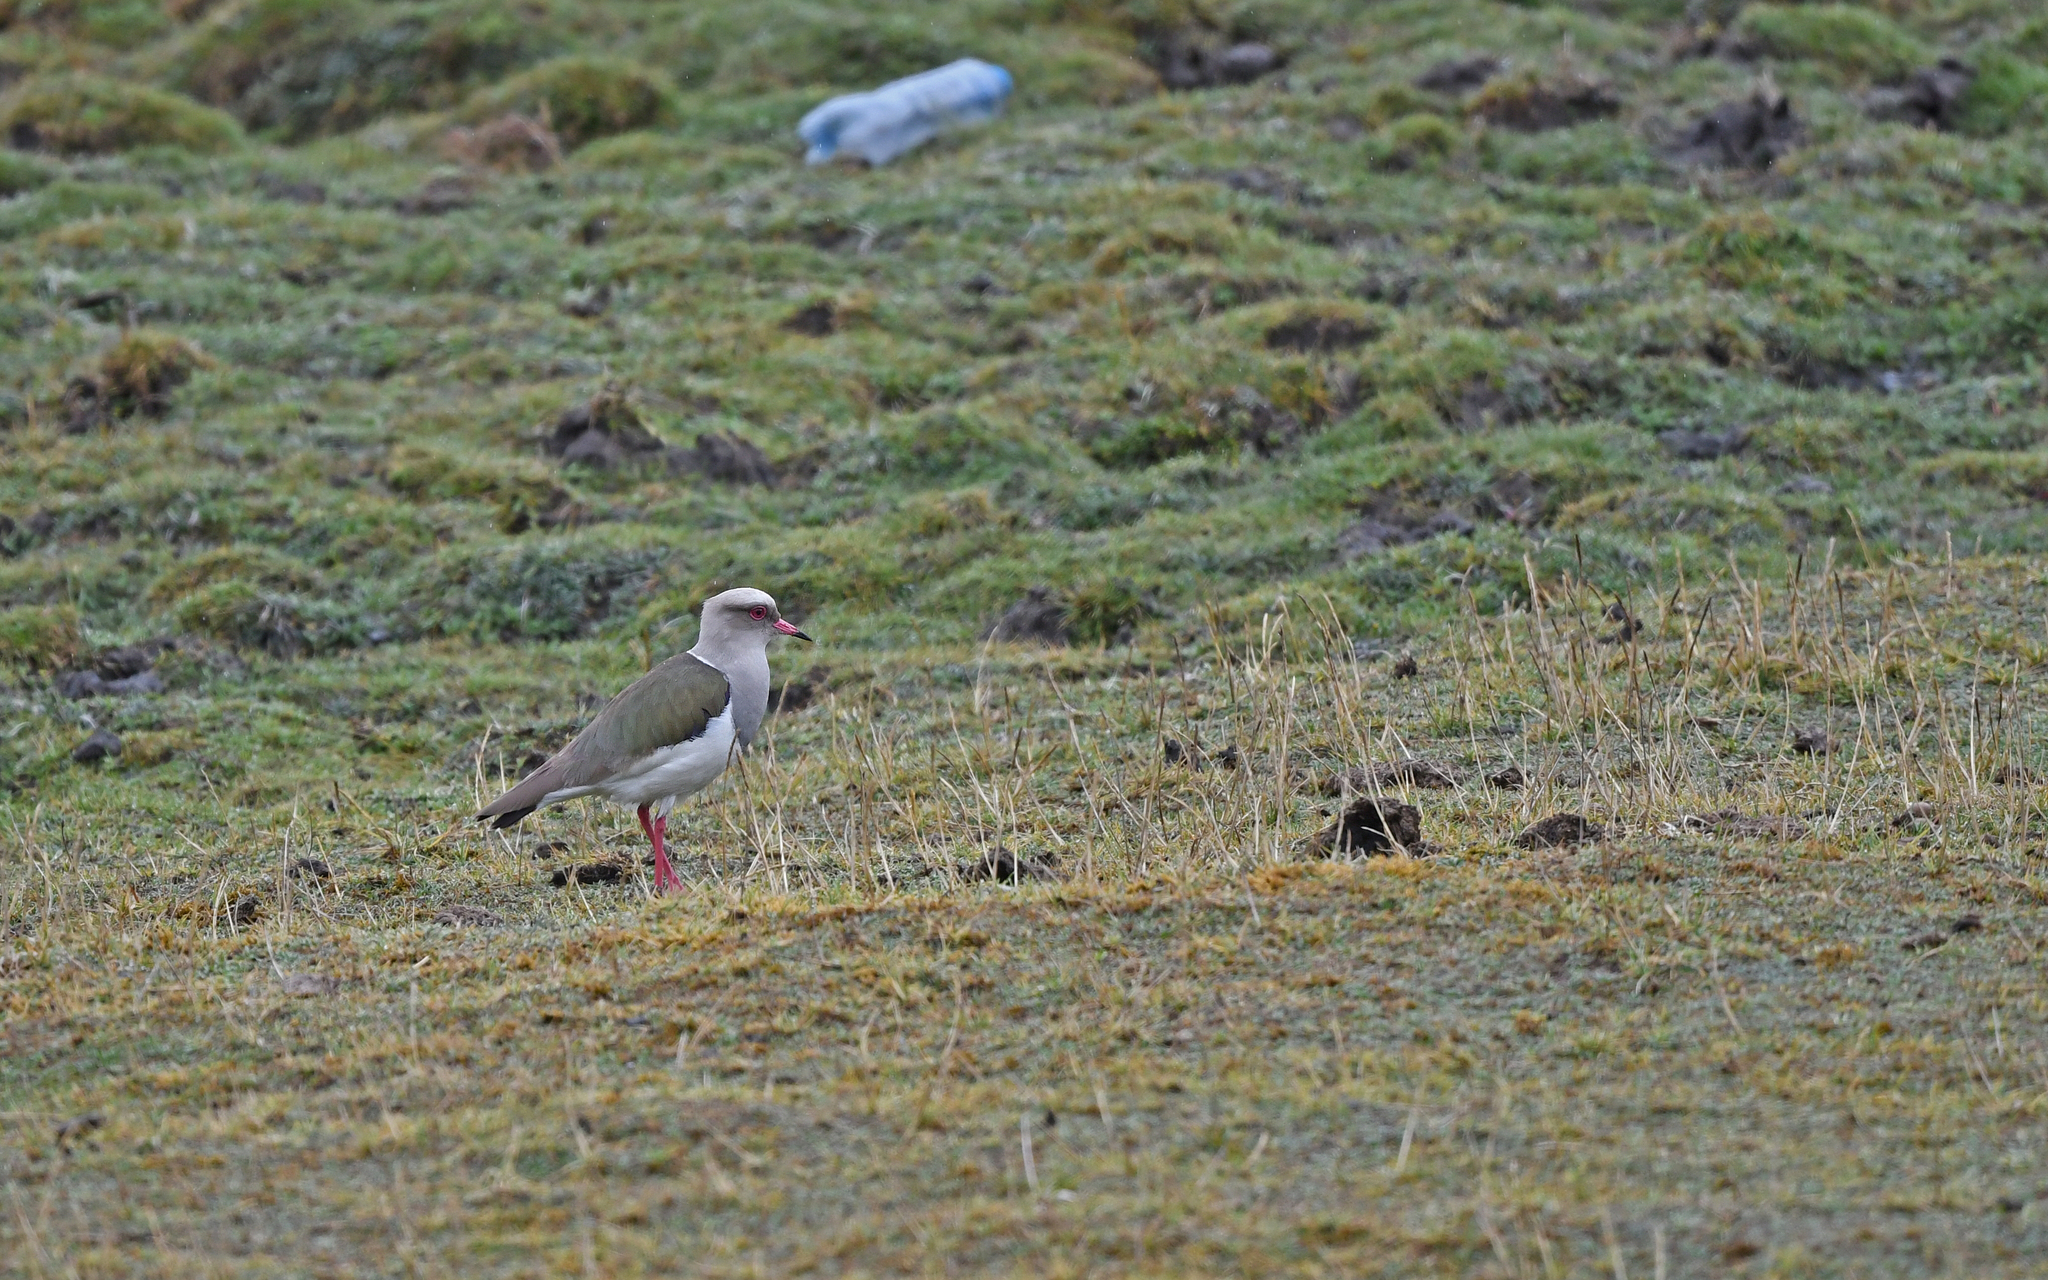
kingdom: Animalia
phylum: Chordata
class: Aves
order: Charadriiformes
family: Charadriidae
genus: Vanellus
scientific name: Vanellus resplendens
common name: Andean lapwing
